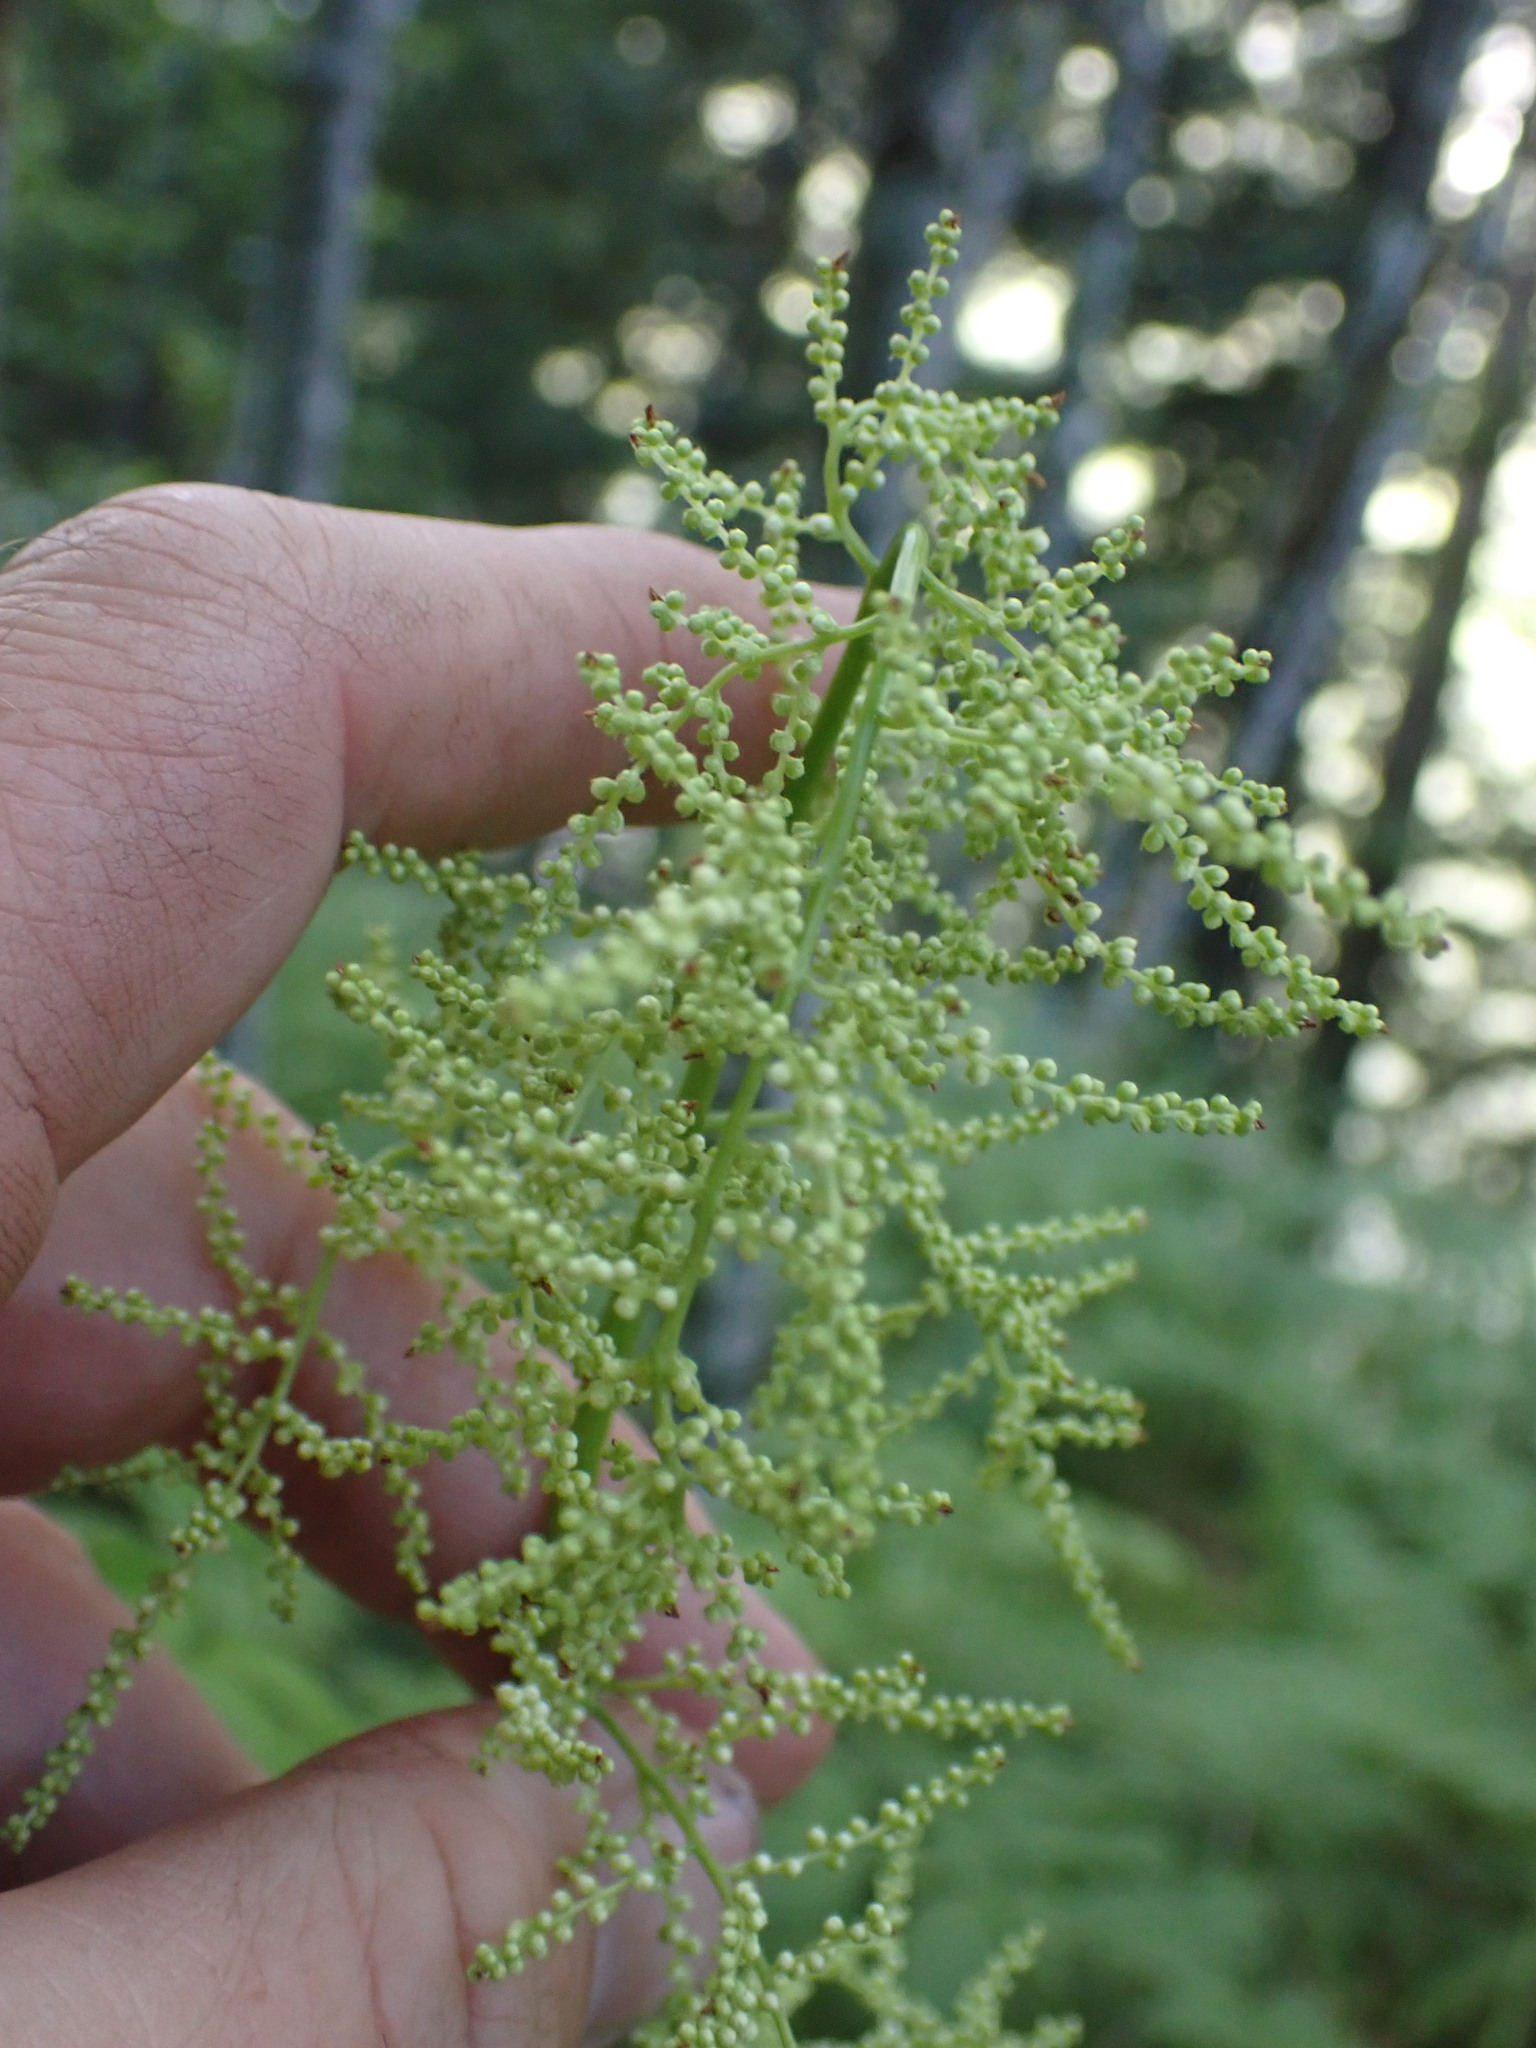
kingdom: Plantae
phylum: Tracheophyta
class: Magnoliopsida
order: Rosales
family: Rosaceae
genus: Aruncus
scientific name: Aruncus dioicus
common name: Buck's-beard
